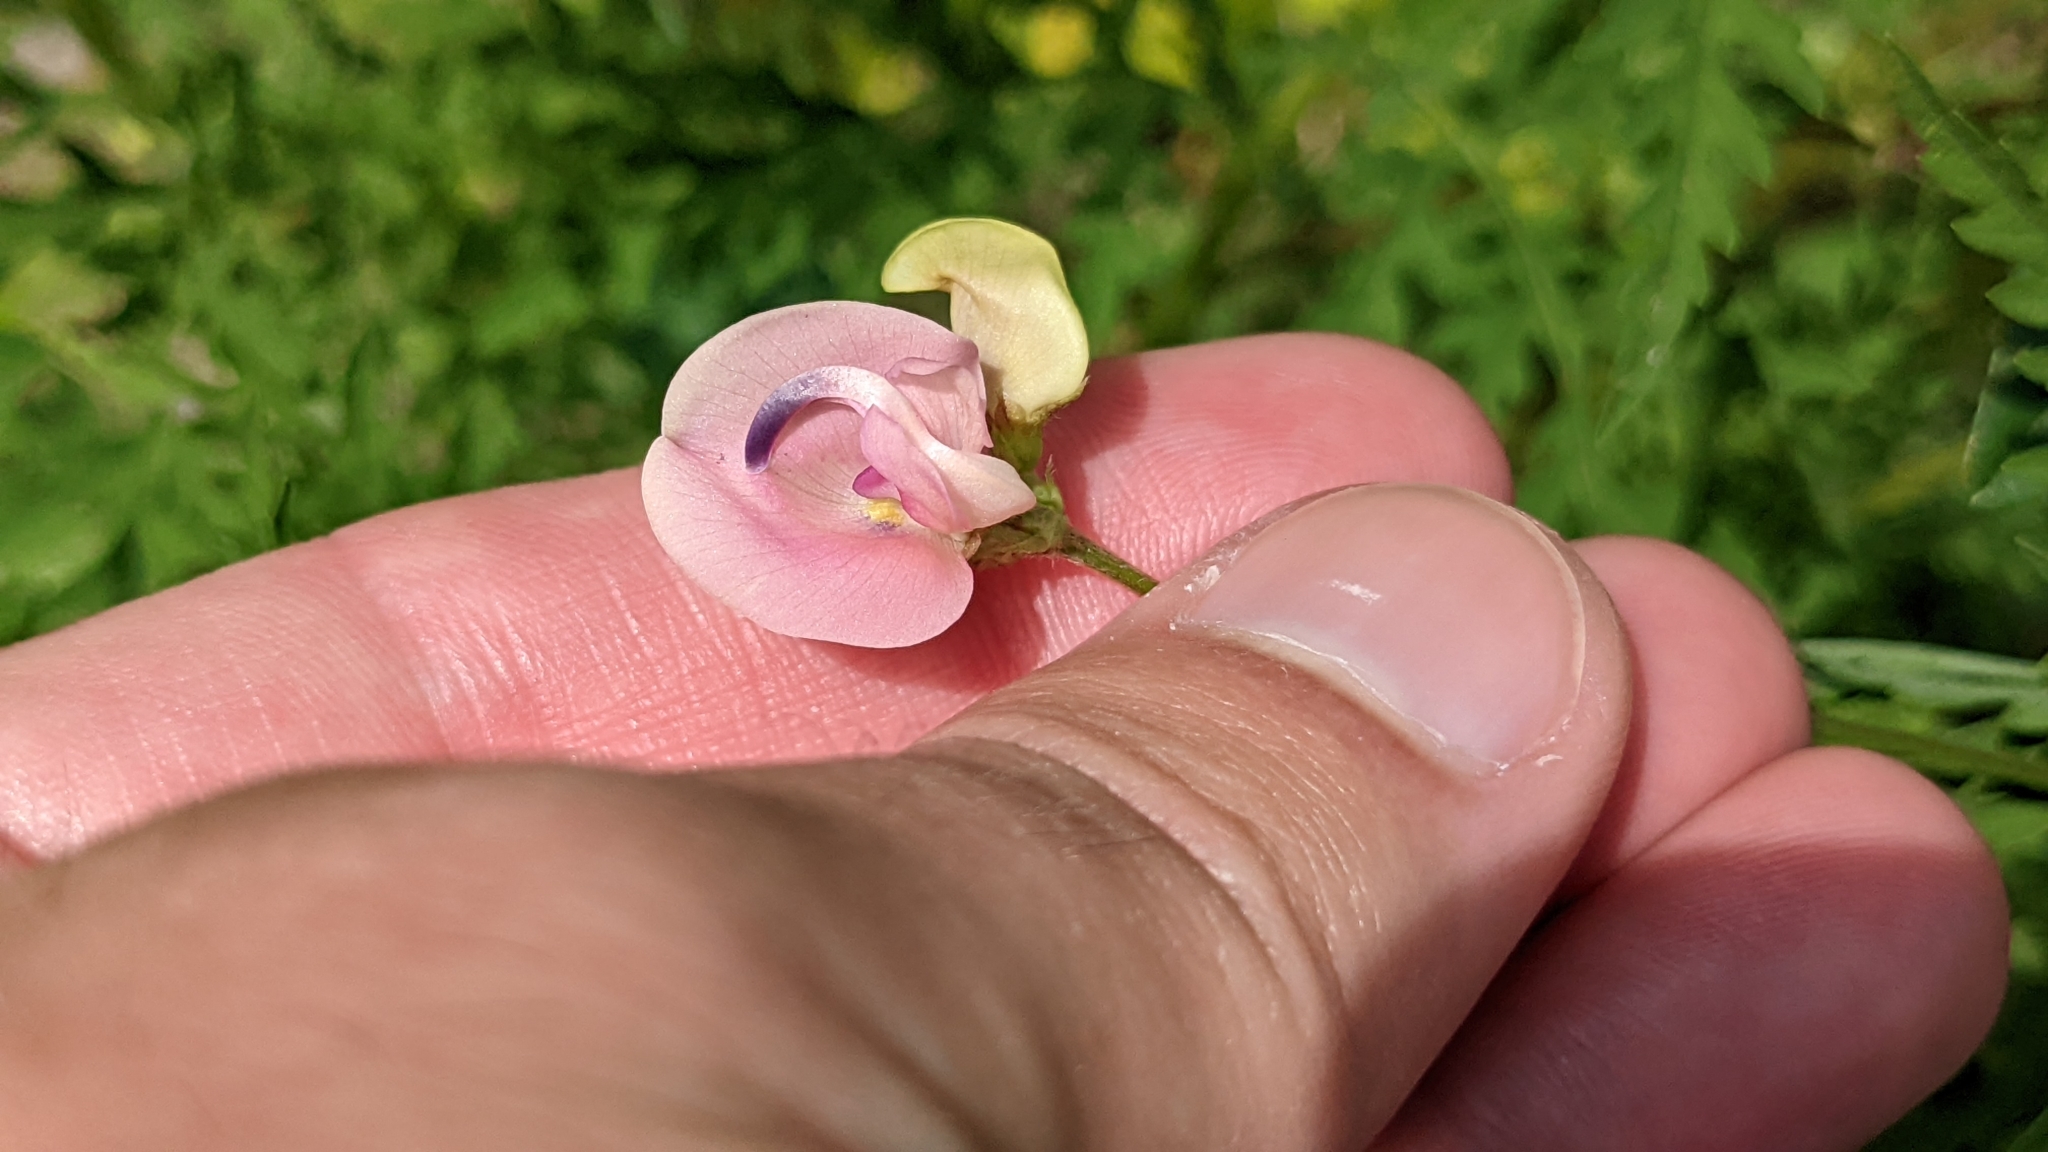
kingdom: Plantae
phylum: Tracheophyta
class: Magnoliopsida
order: Fabales
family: Fabaceae
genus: Strophostyles
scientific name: Strophostyles helvola
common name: Trailing wild bean
